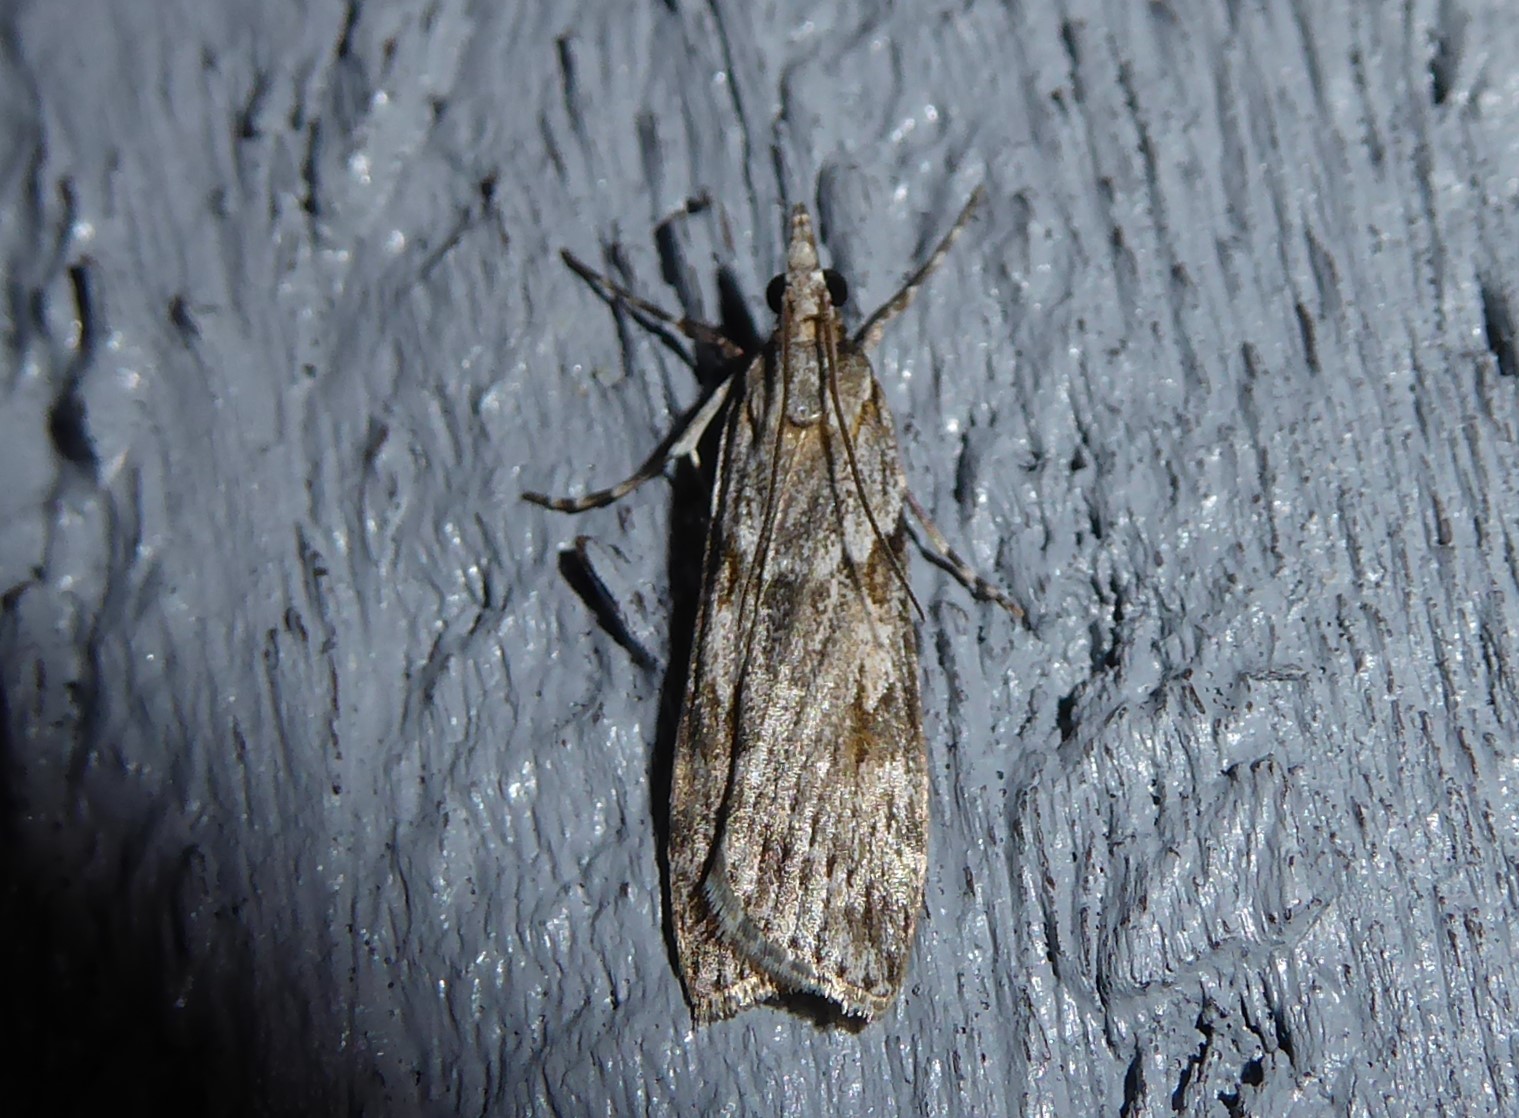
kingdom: Animalia
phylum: Arthropoda
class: Insecta
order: Lepidoptera
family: Crambidae
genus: Scoparia
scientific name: Scoparia halopis
